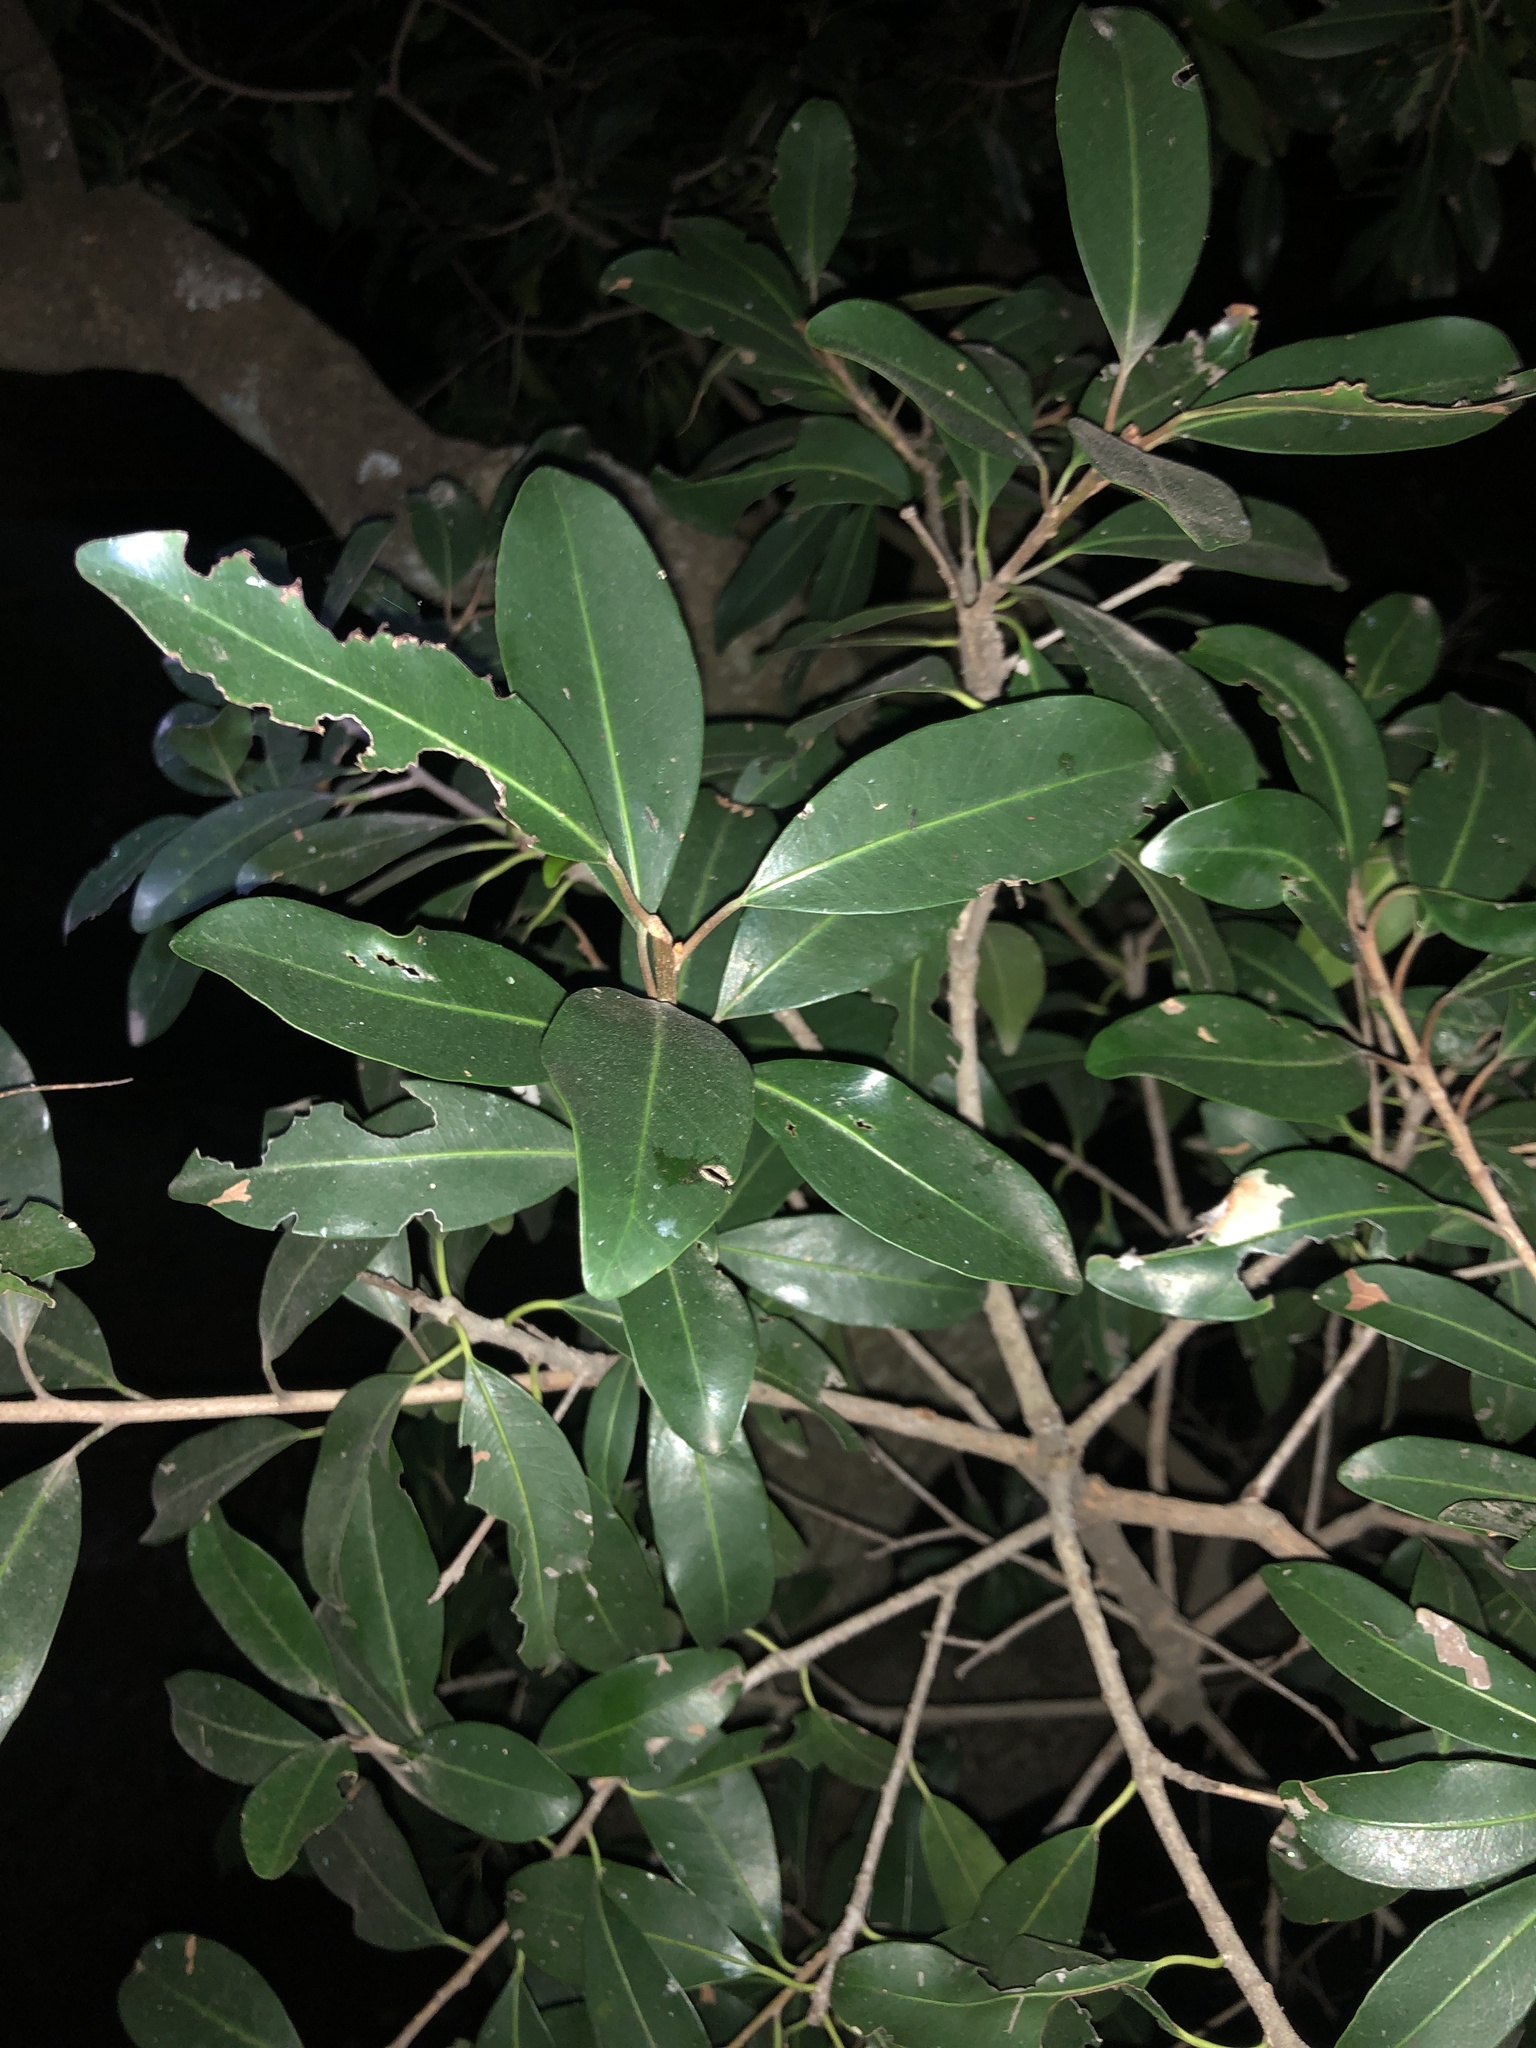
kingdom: Plantae
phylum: Tracheophyta
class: Magnoliopsida
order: Ericales
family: Sapotaceae
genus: Mimusops
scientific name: Mimusops zeyheri
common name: Transvaal red milkwood
